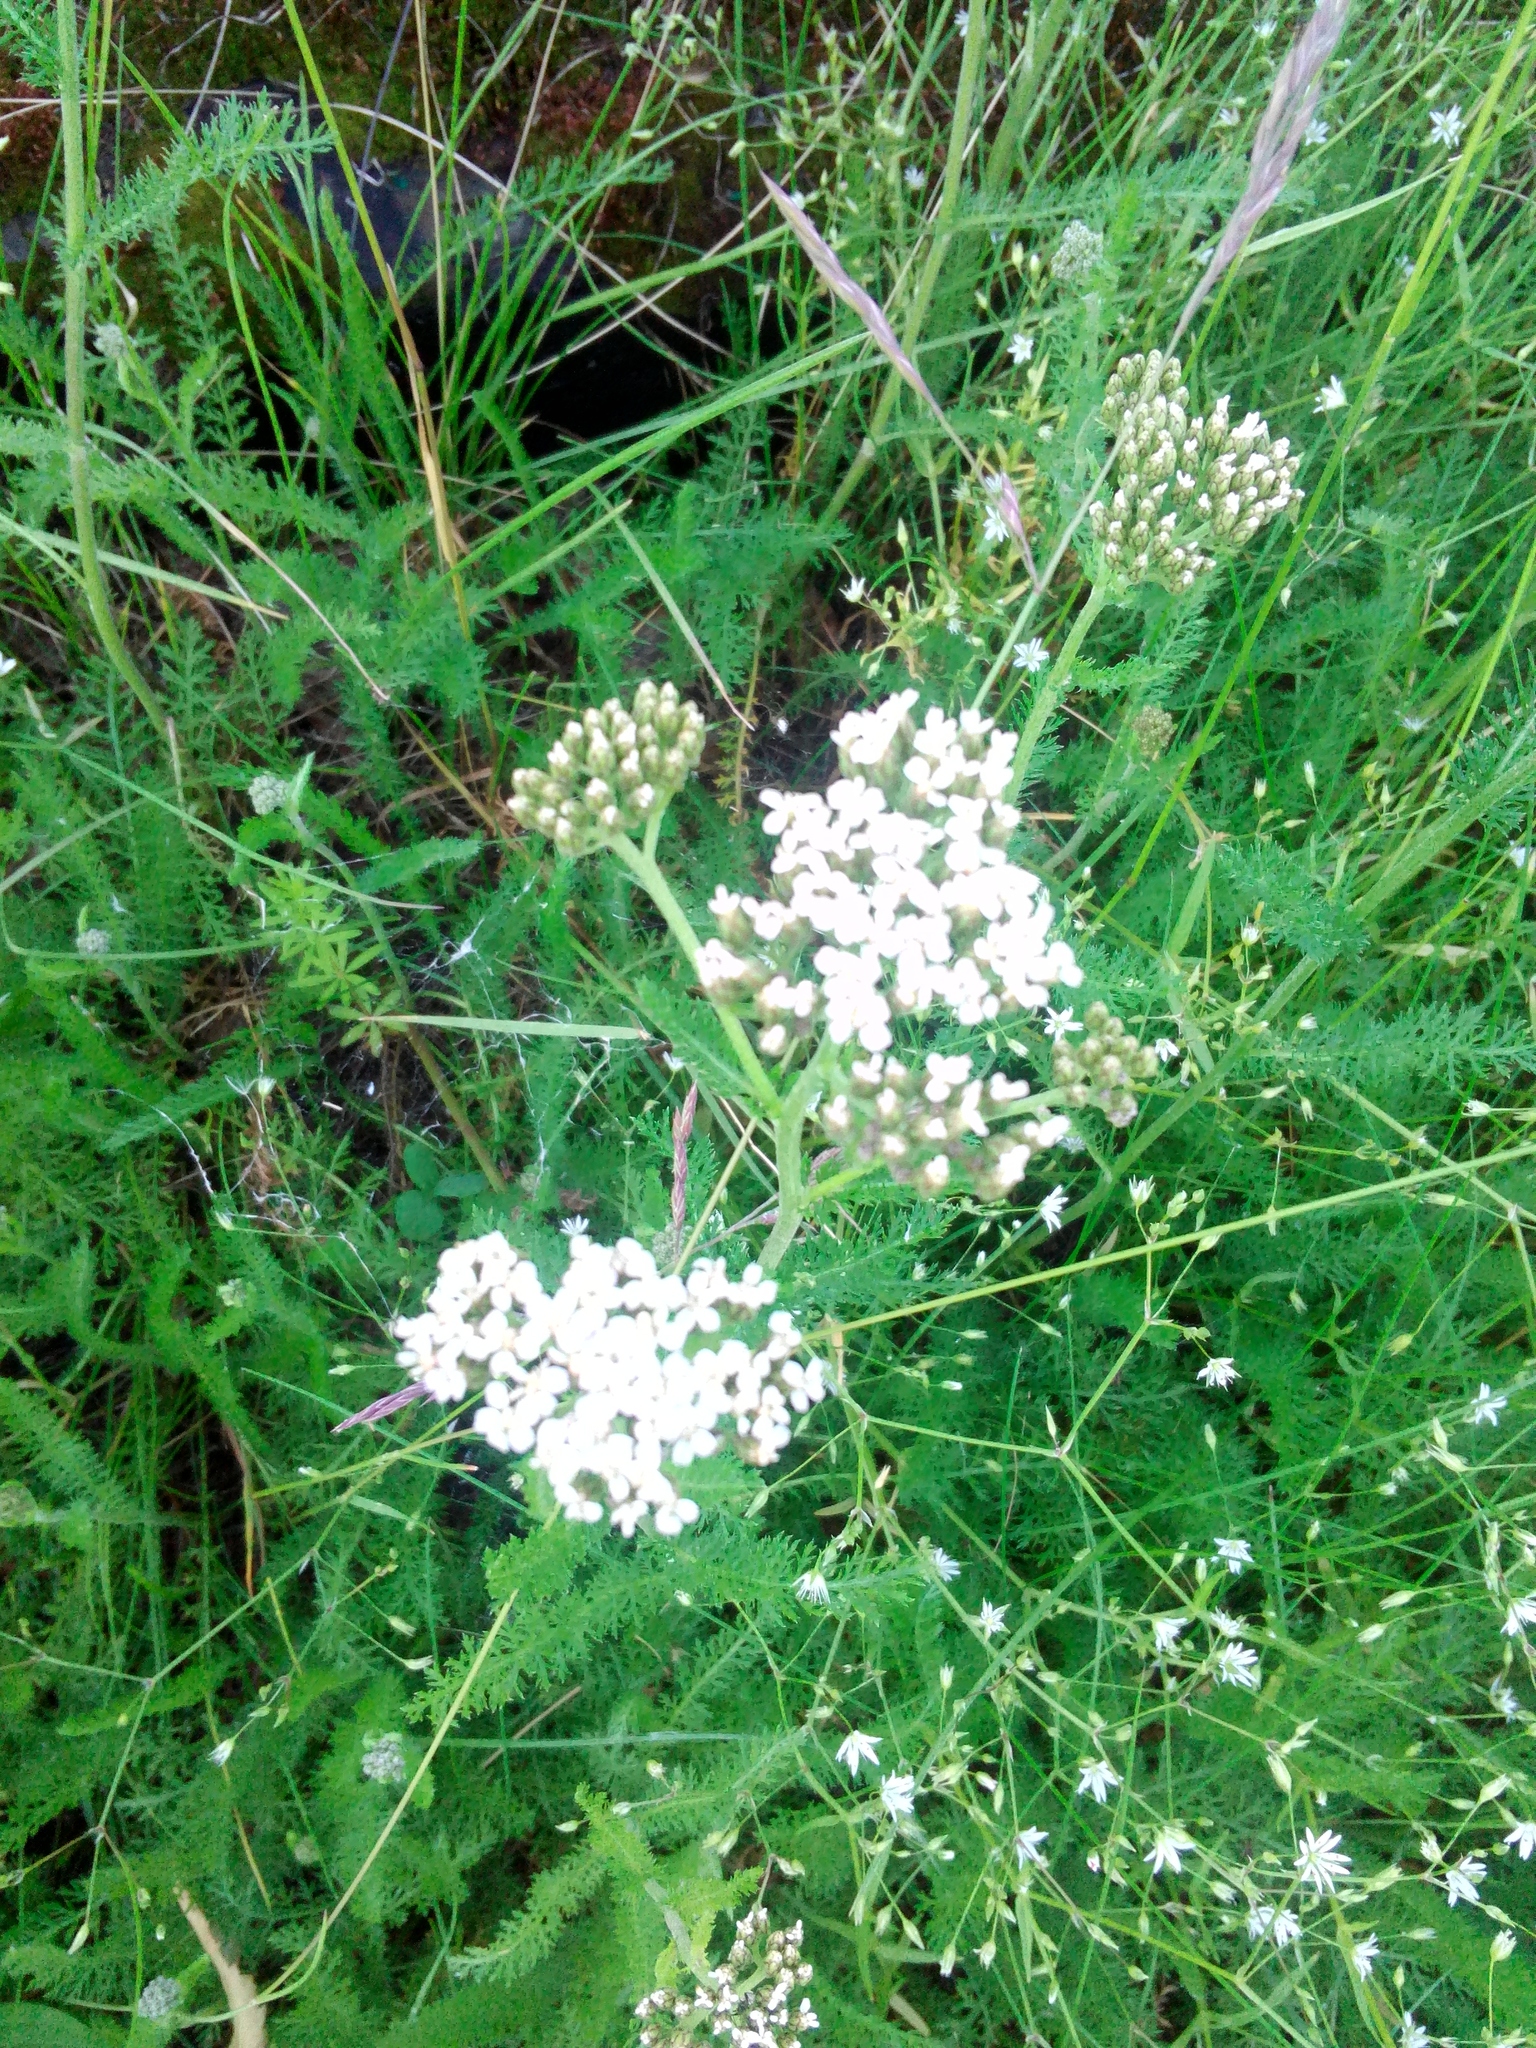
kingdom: Plantae
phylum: Tracheophyta
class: Magnoliopsida
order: Asterales
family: Asteraceae
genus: Achillea
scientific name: Achillea millefolium
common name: Yarrow
